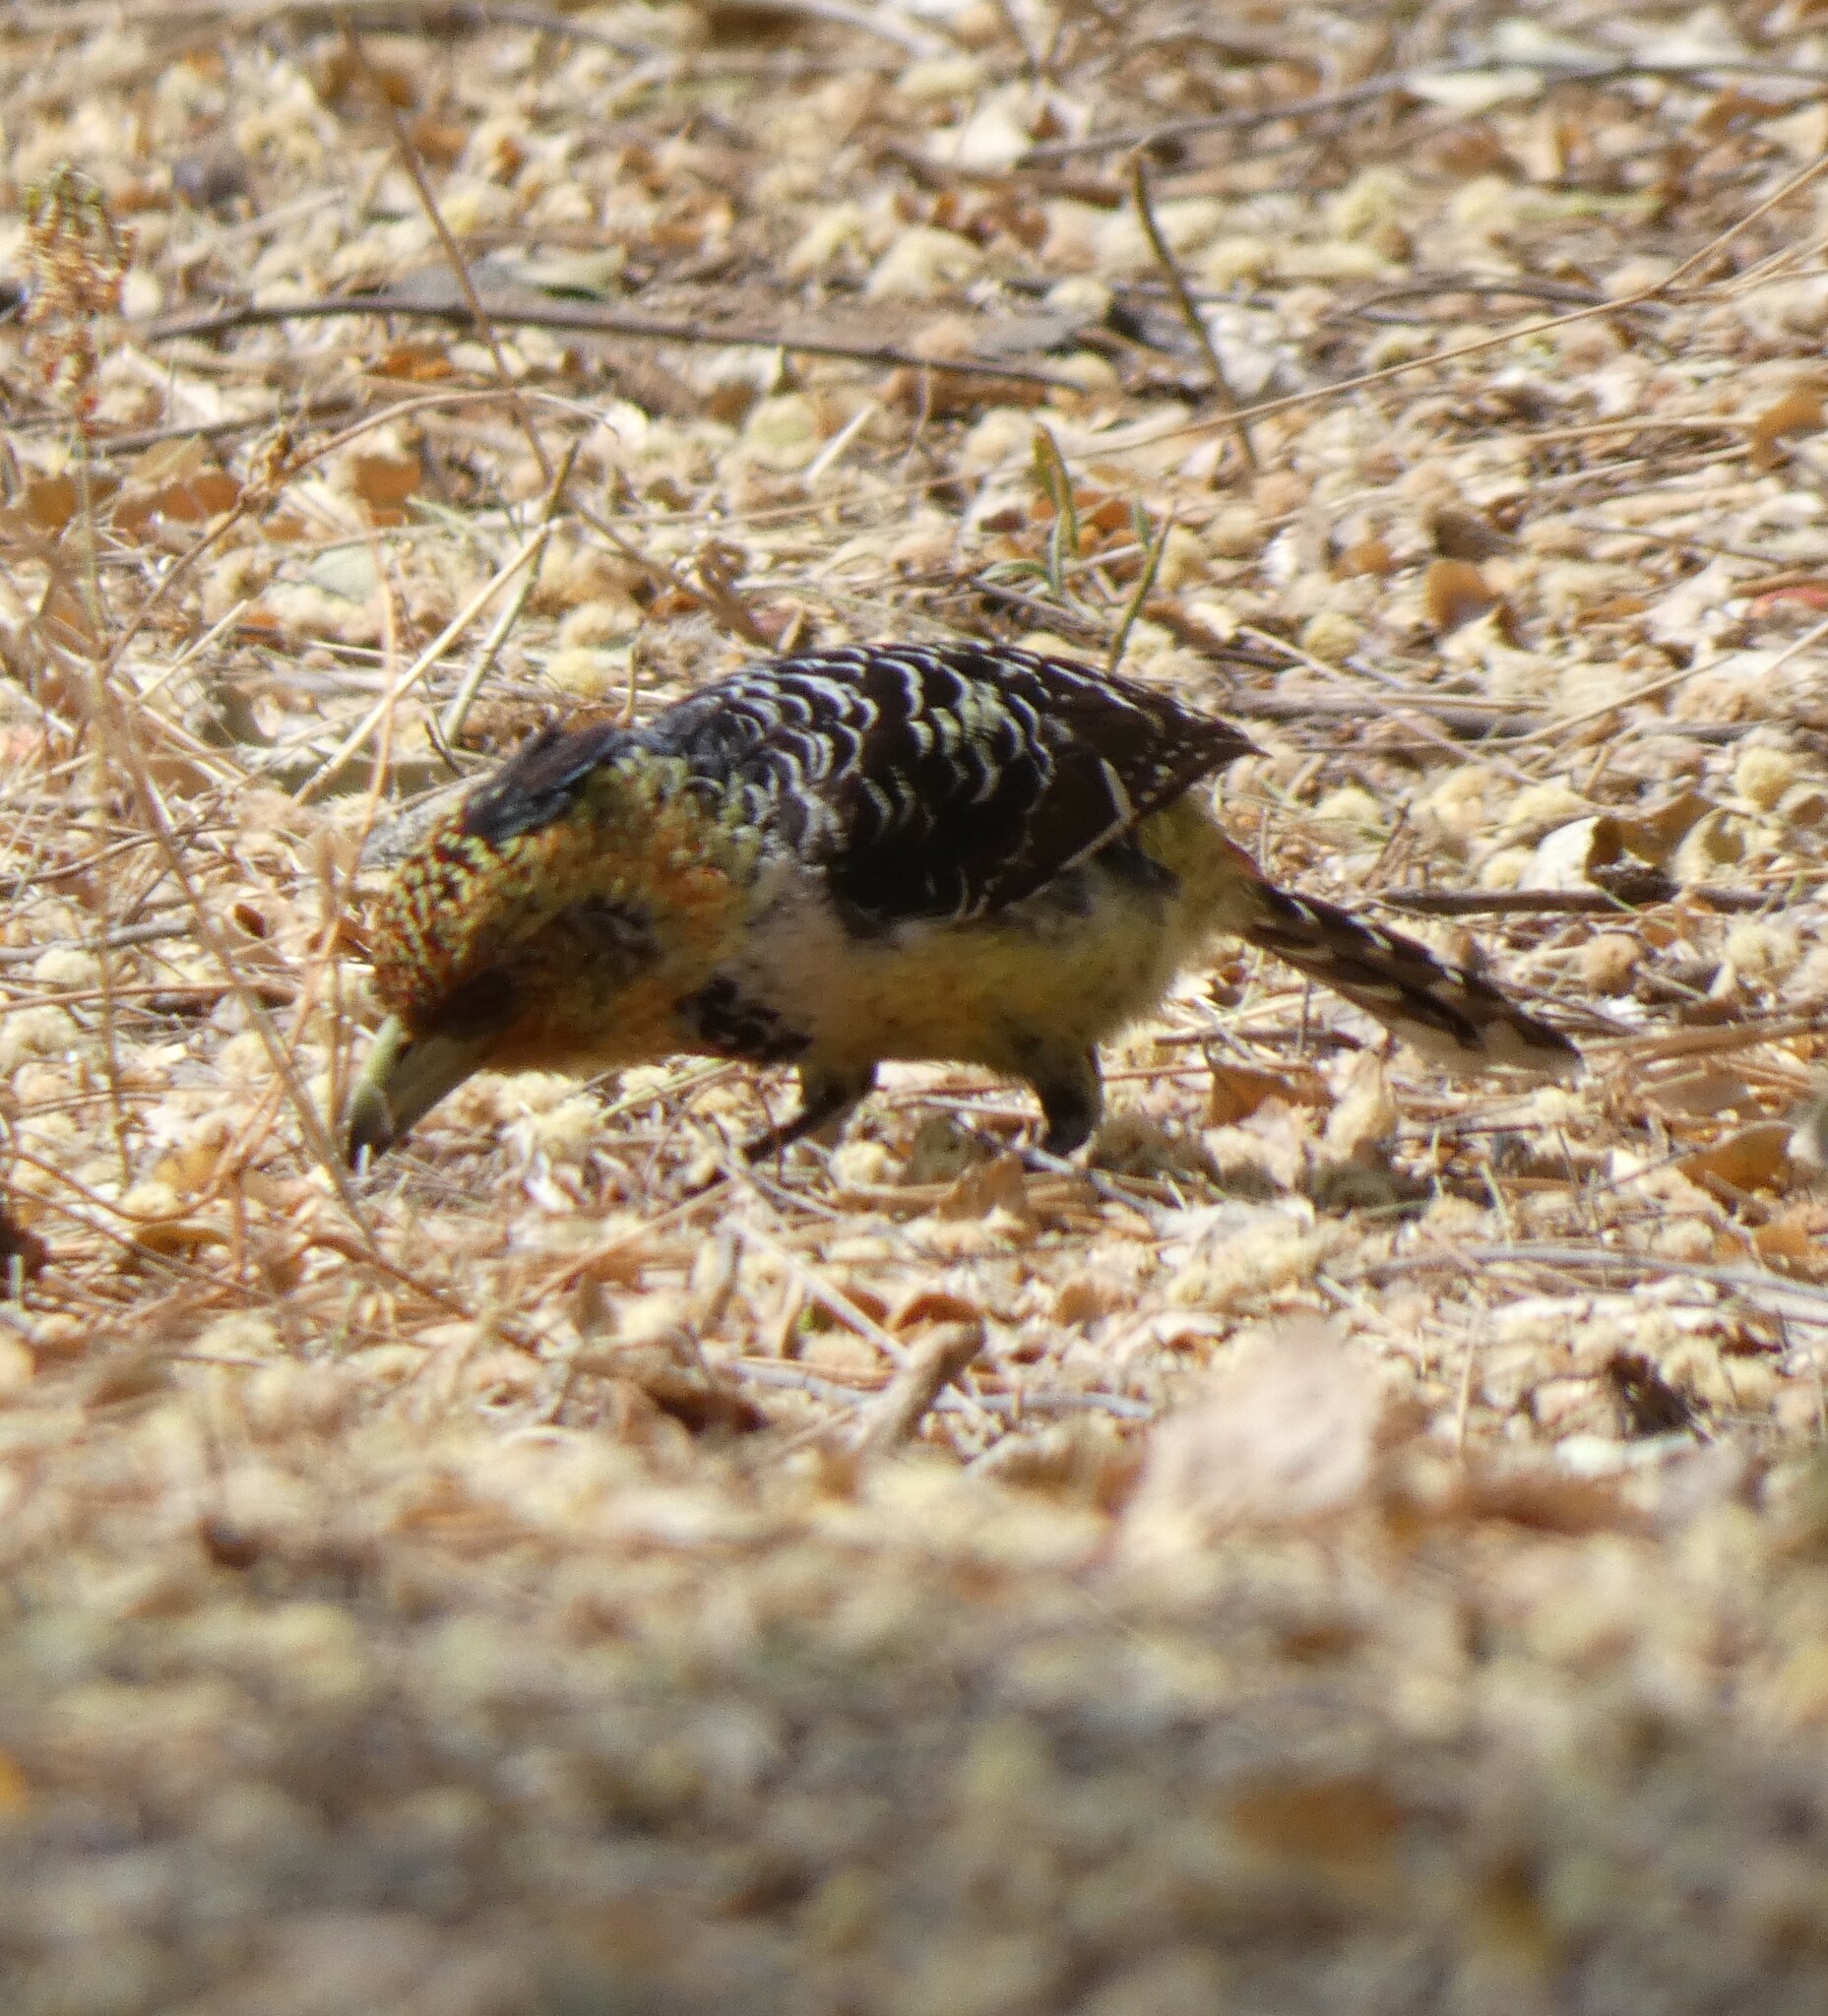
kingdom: Animalia
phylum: Chordata
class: Aves
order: Piciformes
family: Lybiidae
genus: Trachyphonus
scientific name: Trachyphonus vaillantii
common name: Crested barbet
